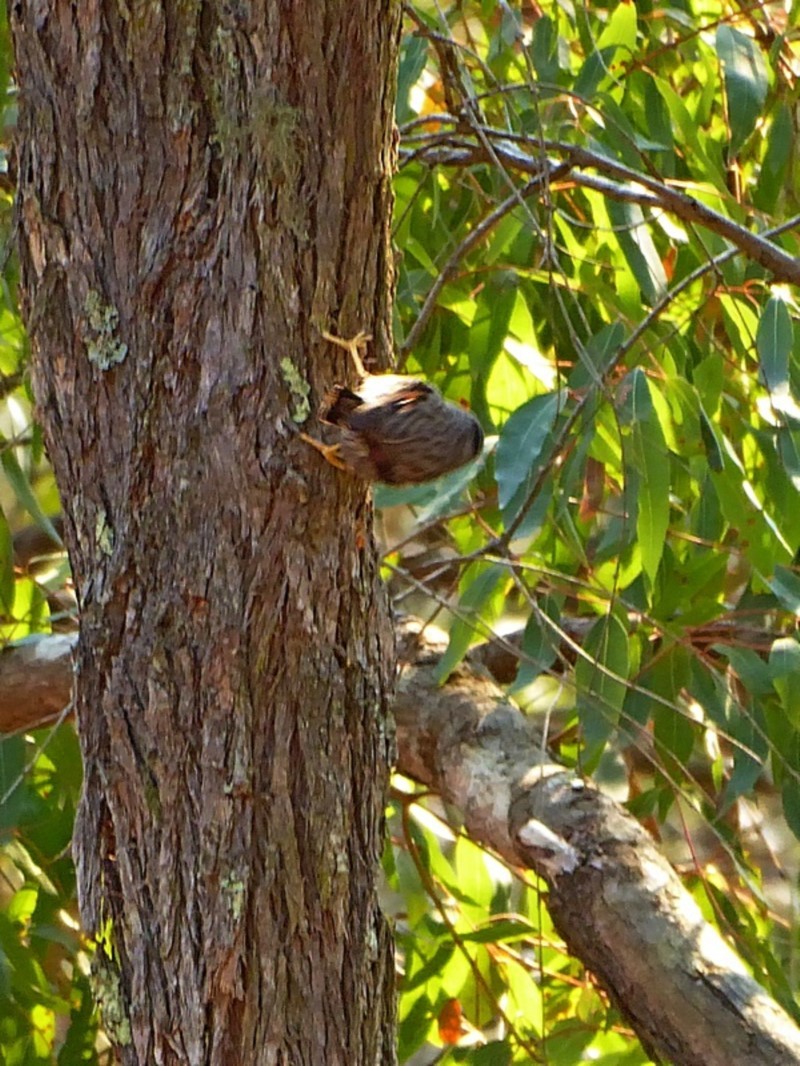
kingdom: Animalia
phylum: Chordata
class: Aves
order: Passeriformes
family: Neosittidae
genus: Daphoenositta
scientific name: Daphoenositta chrysoptera
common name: Varied sittella
